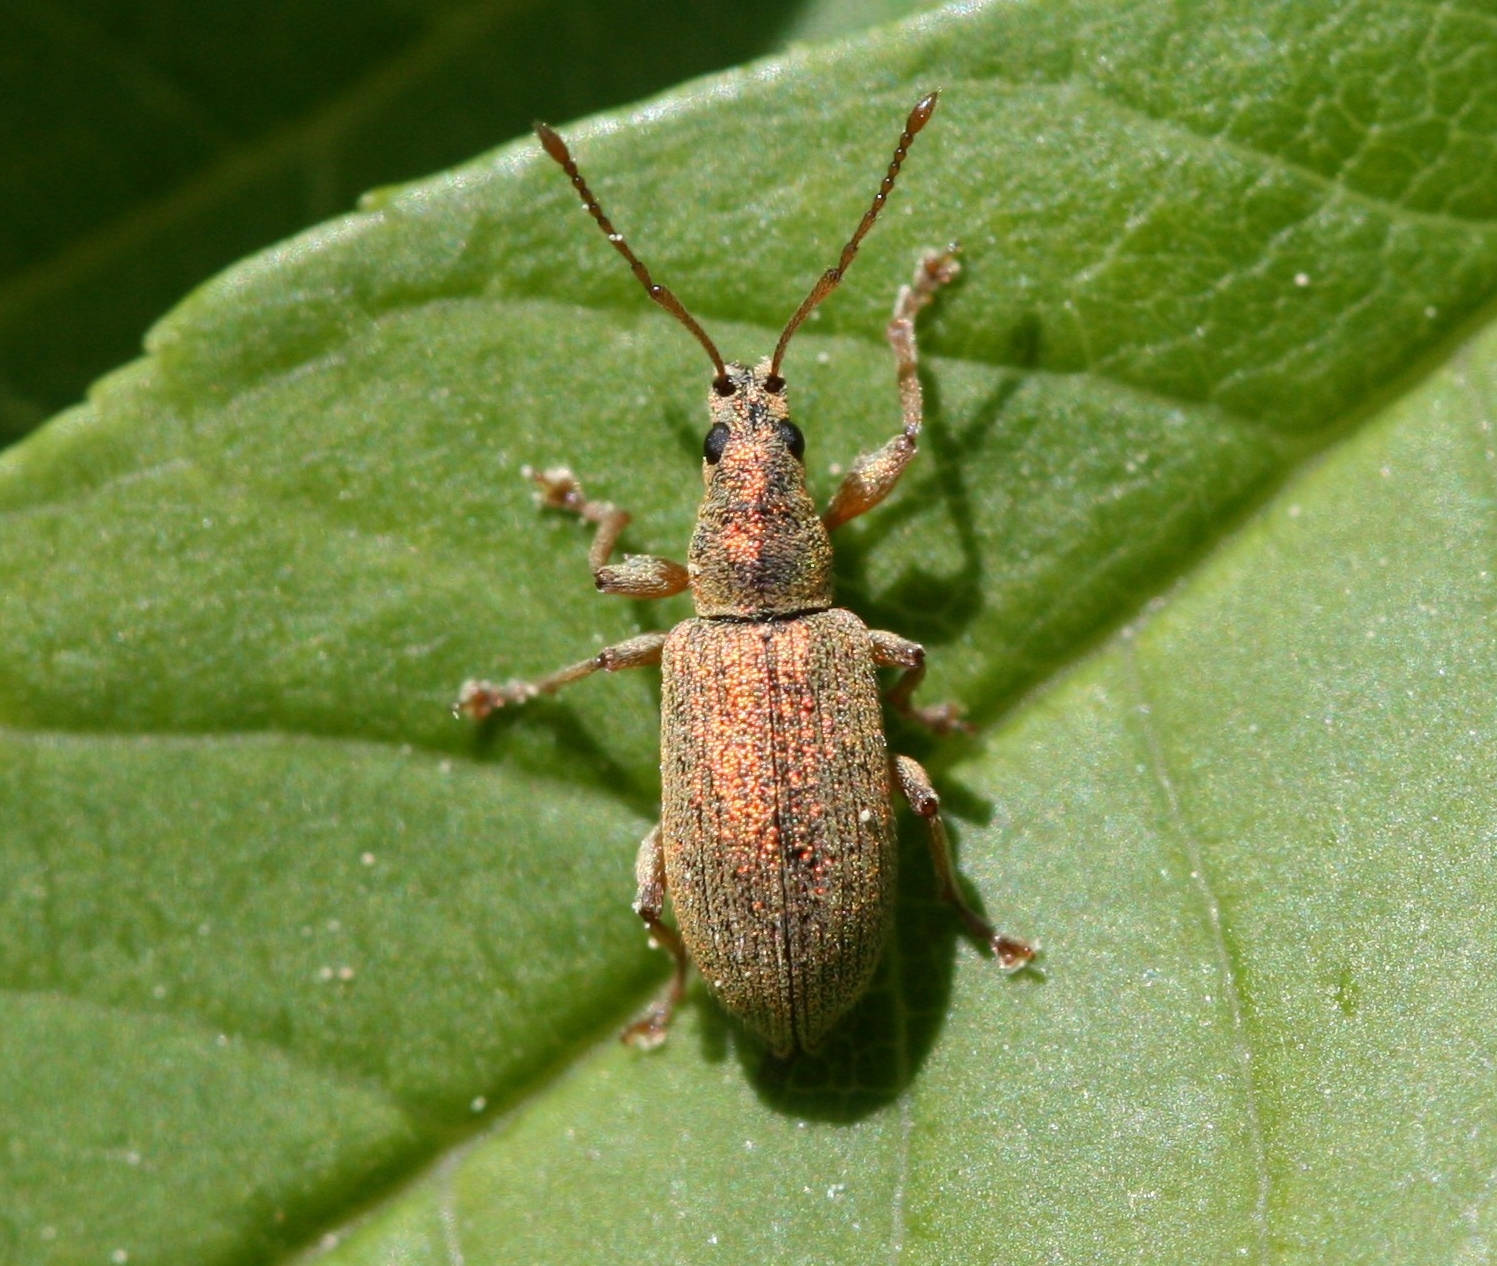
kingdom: Animalia
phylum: Arthropoda
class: Insecta
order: Coleoptera
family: Curculionidae
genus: Phyllobius
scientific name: Phyllobius argentatus
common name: Silver-green leaf weevil
